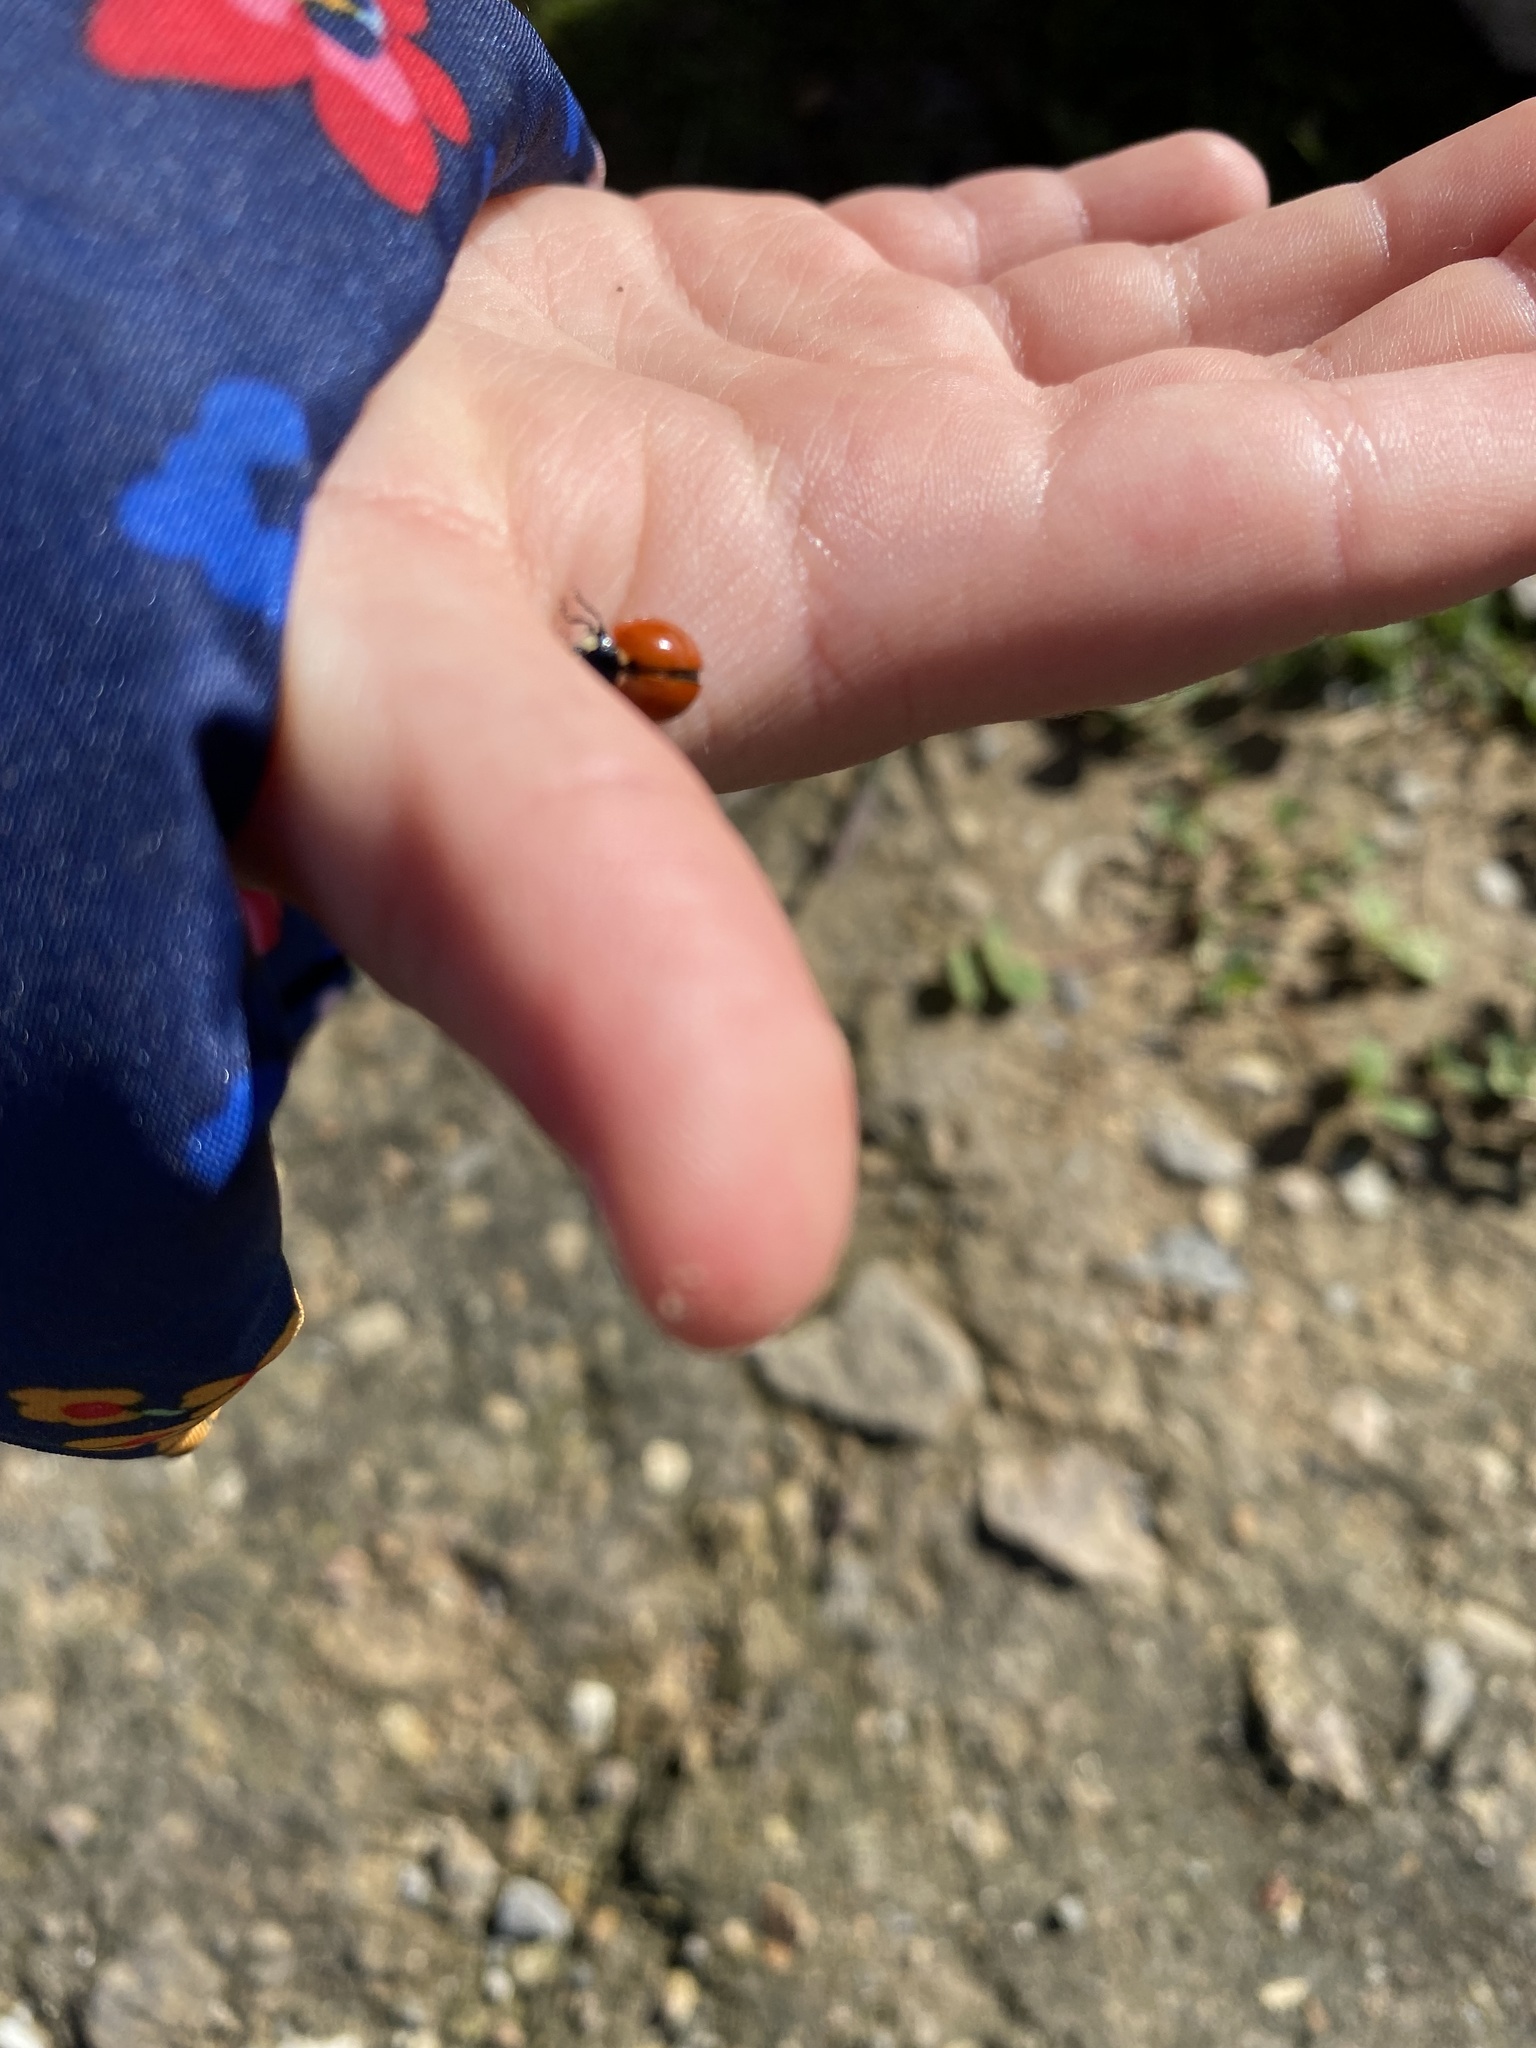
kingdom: Animalia
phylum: Arthropoda
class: Insecta
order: Coleoptera
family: Coccinellidae
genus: Coccinella
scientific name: Coccinella californica
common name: Lady beetle
